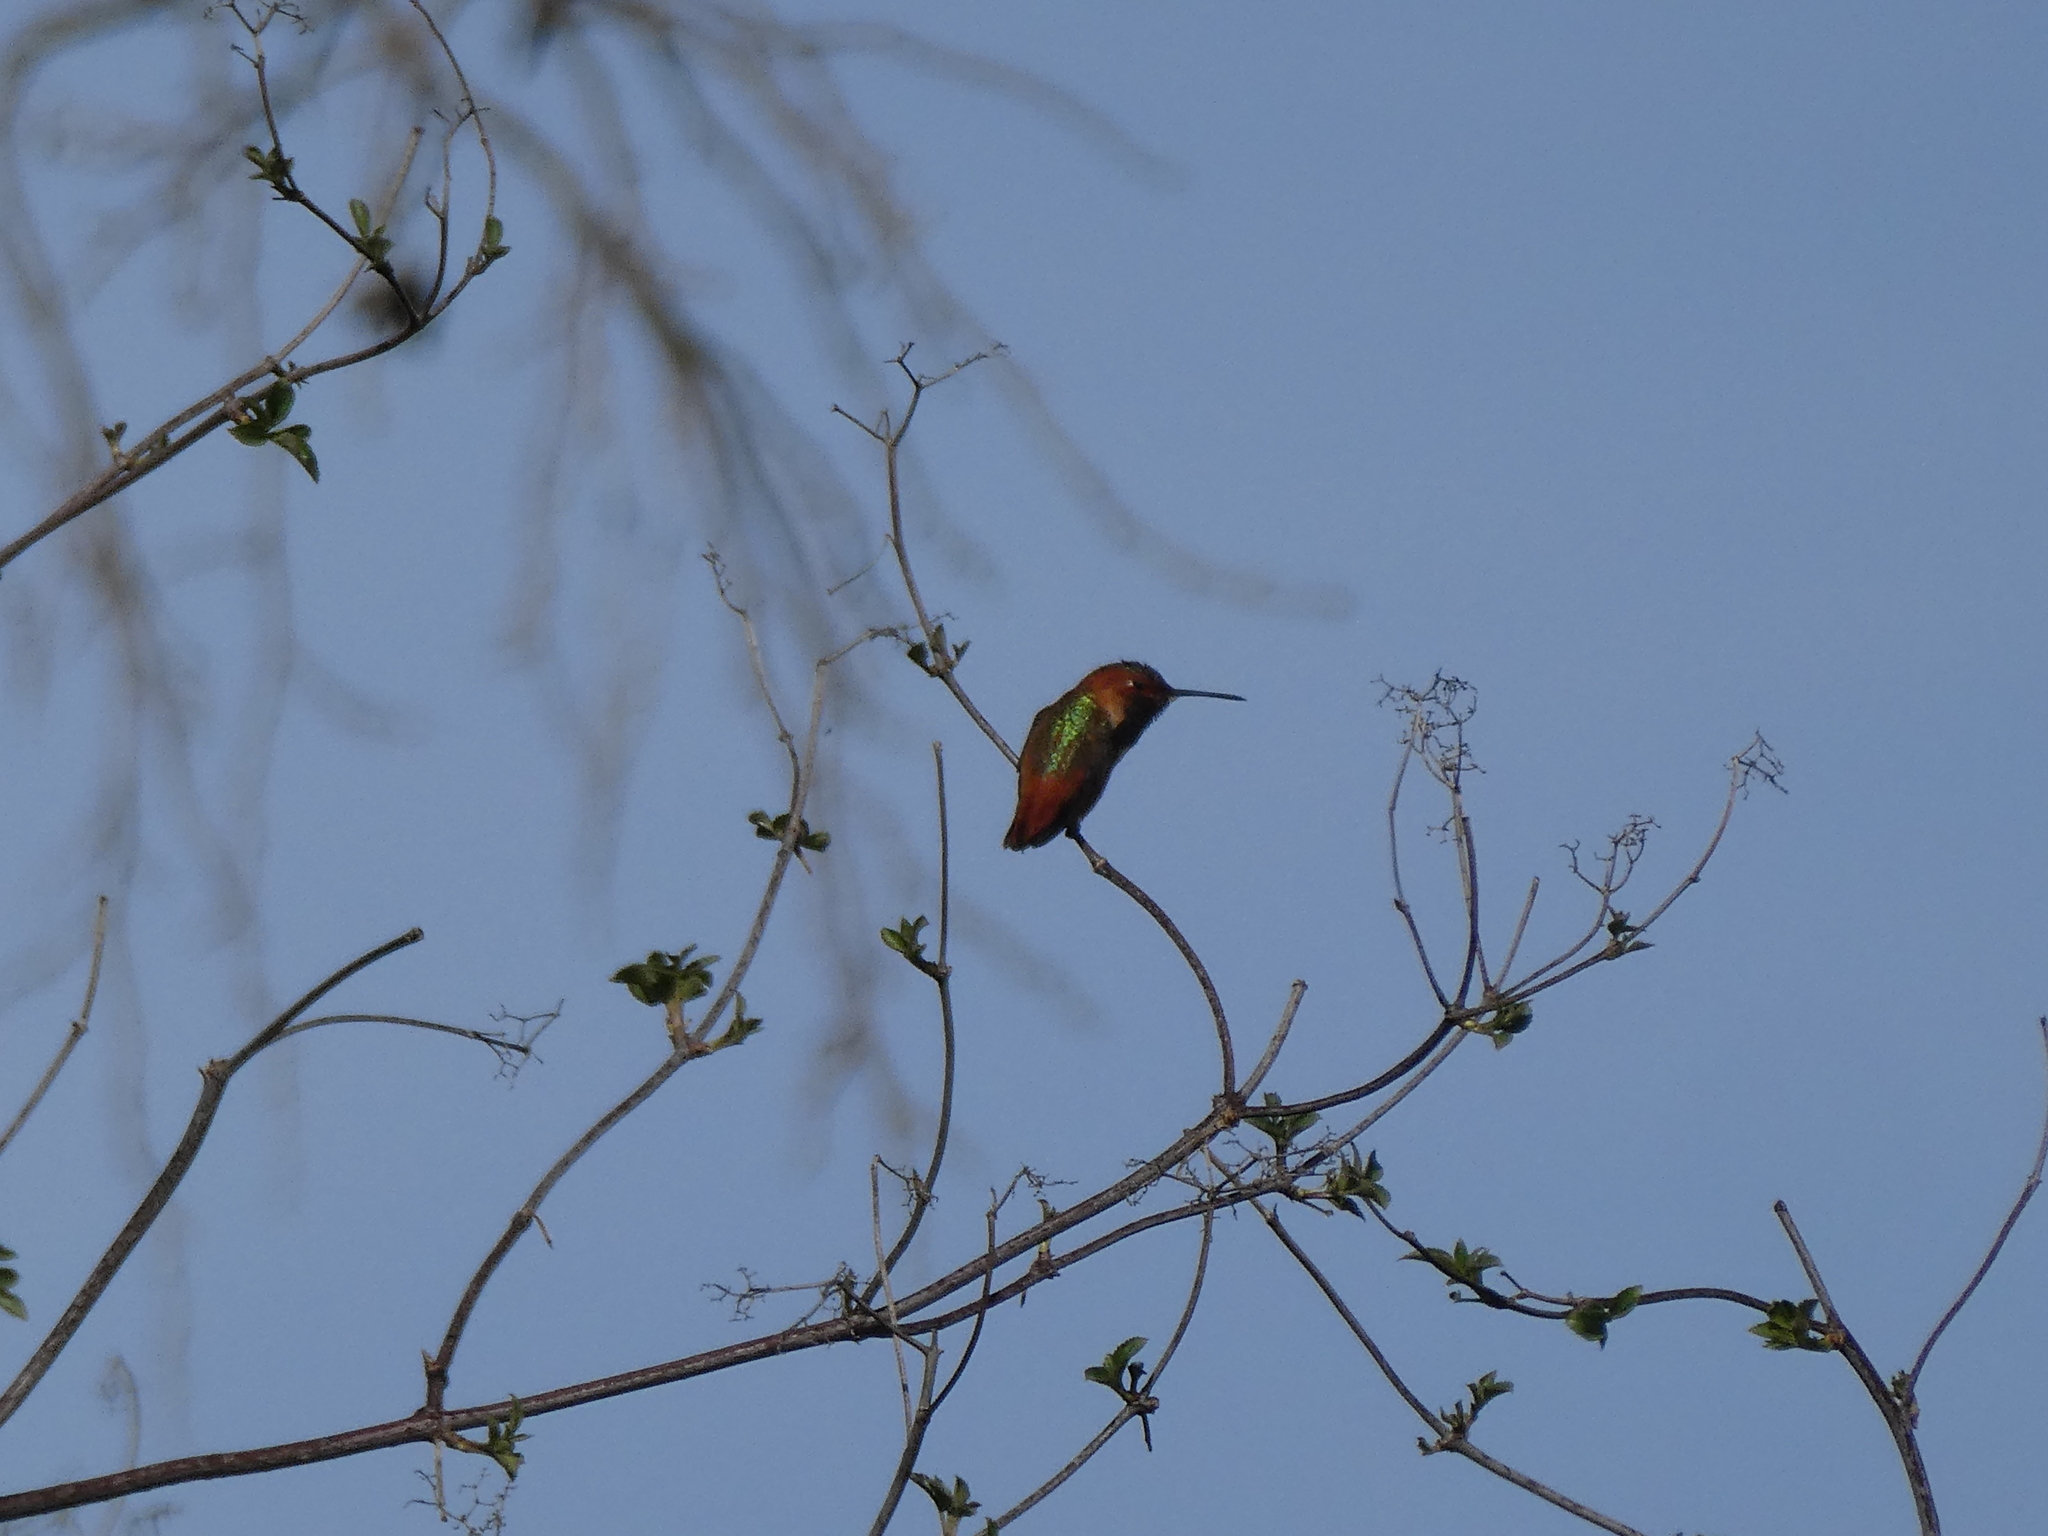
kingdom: Animalia
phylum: Chordata
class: Aves
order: Apodiformes
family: Trochilidae
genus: Selasphorus
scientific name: Selasphorus sasin
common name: Allen's hummingbird
